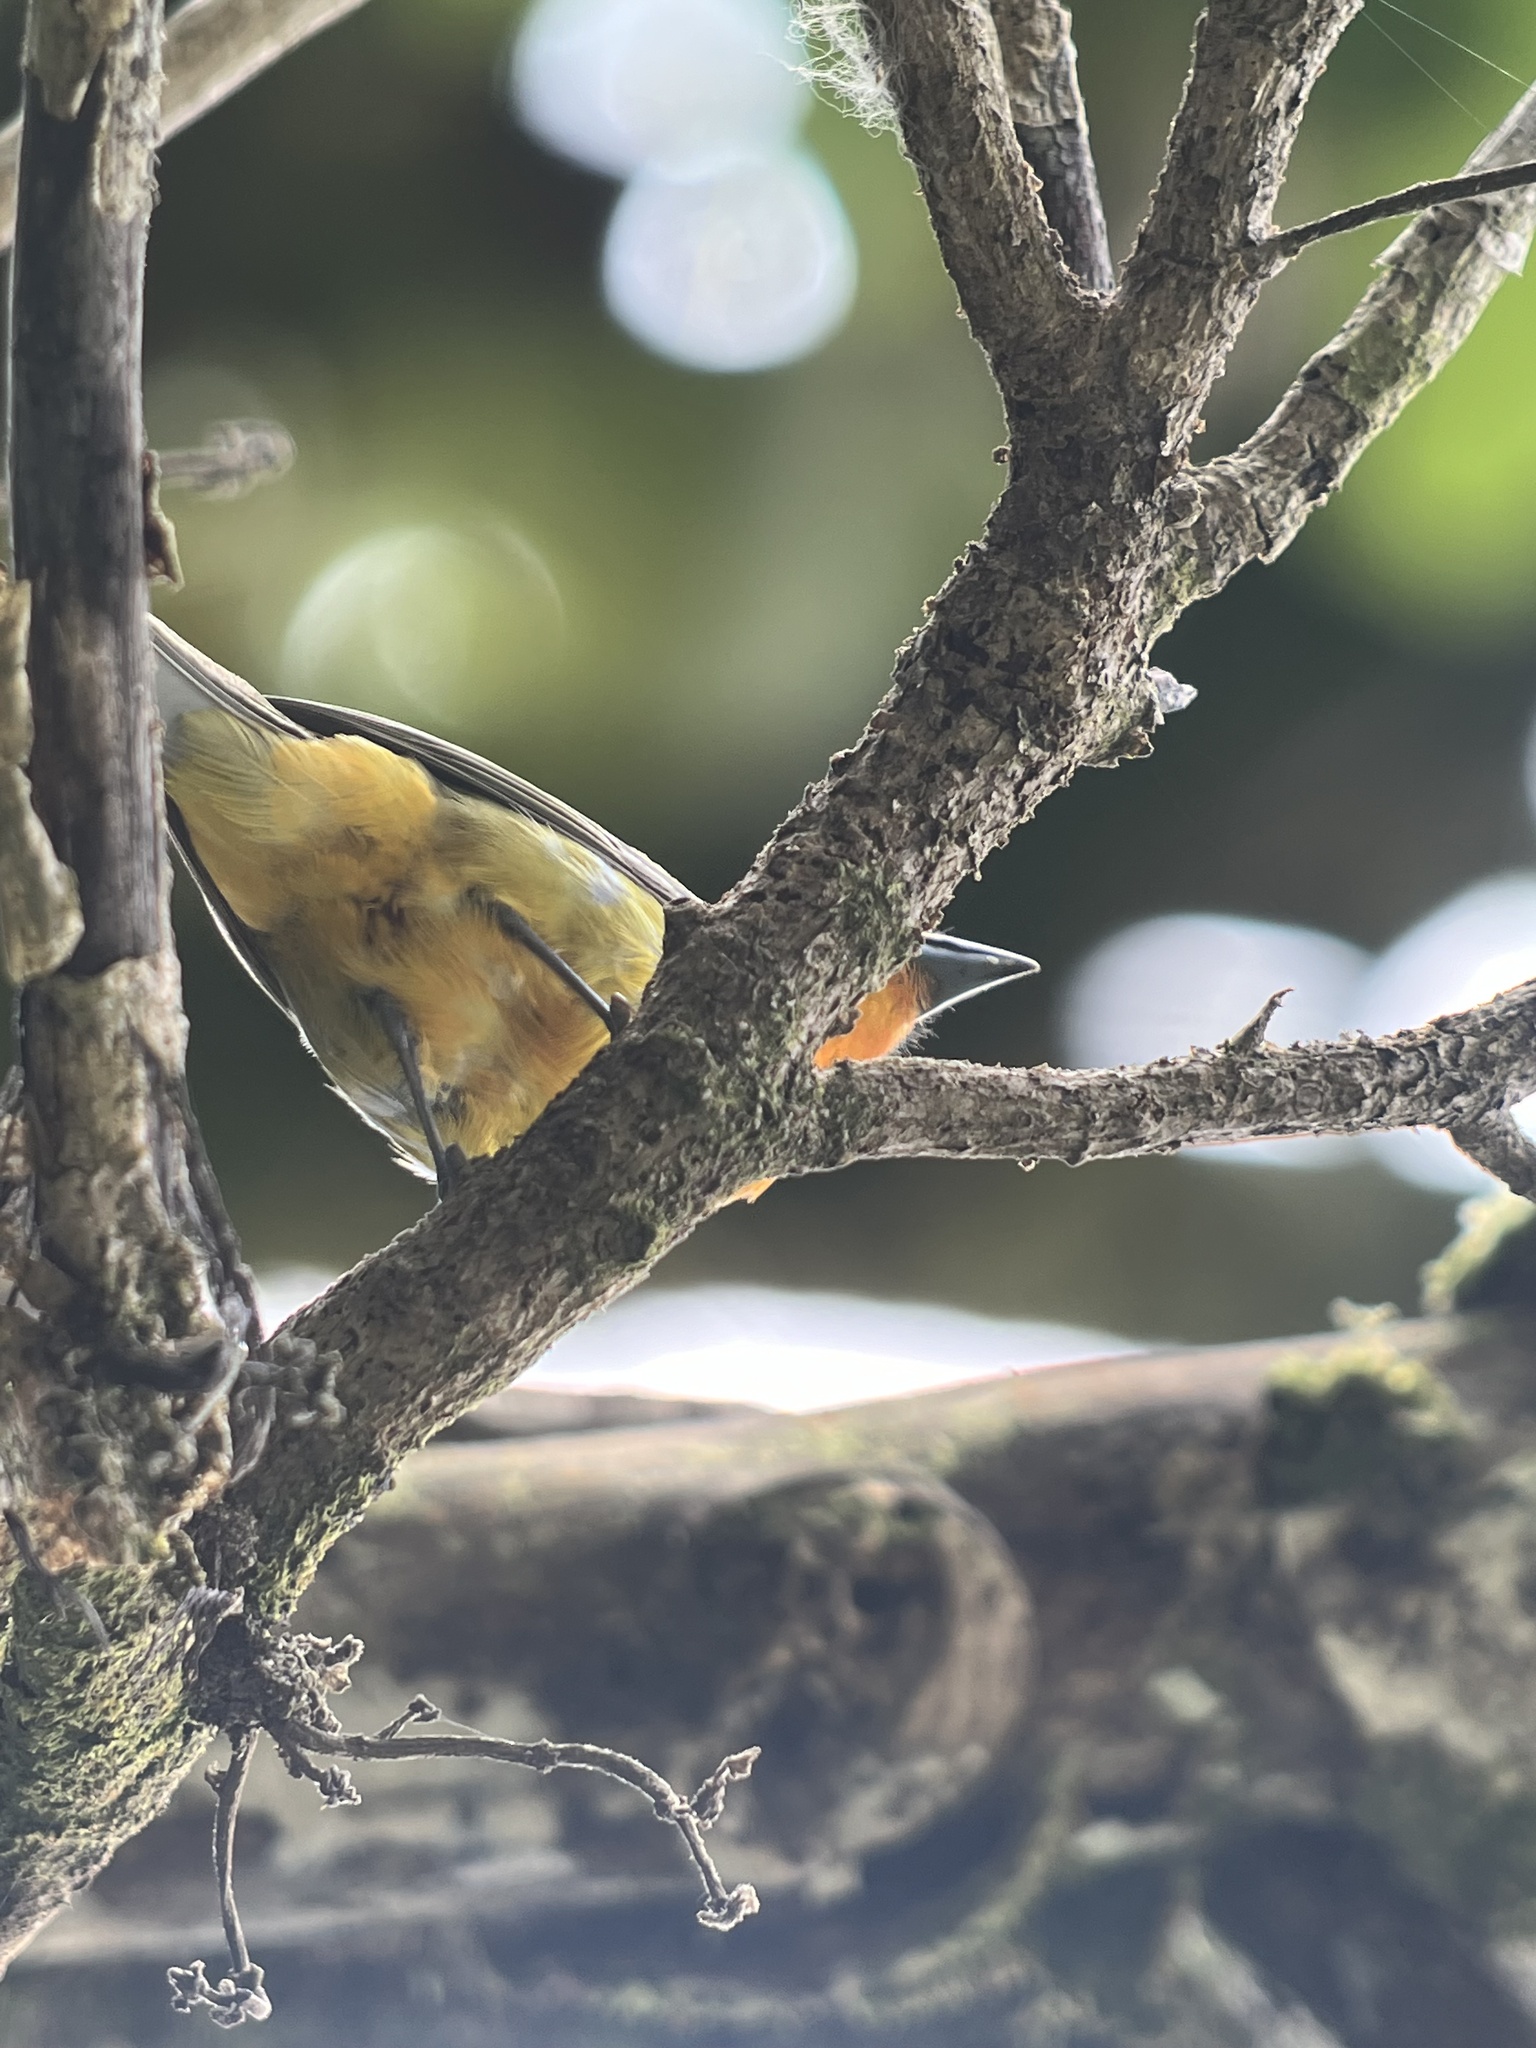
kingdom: Animalia
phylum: Chordata
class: Aves
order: Passeriformes
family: Cardinalidae
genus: Piranga
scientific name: Piranga bidentata
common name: Flame-colored tanager
